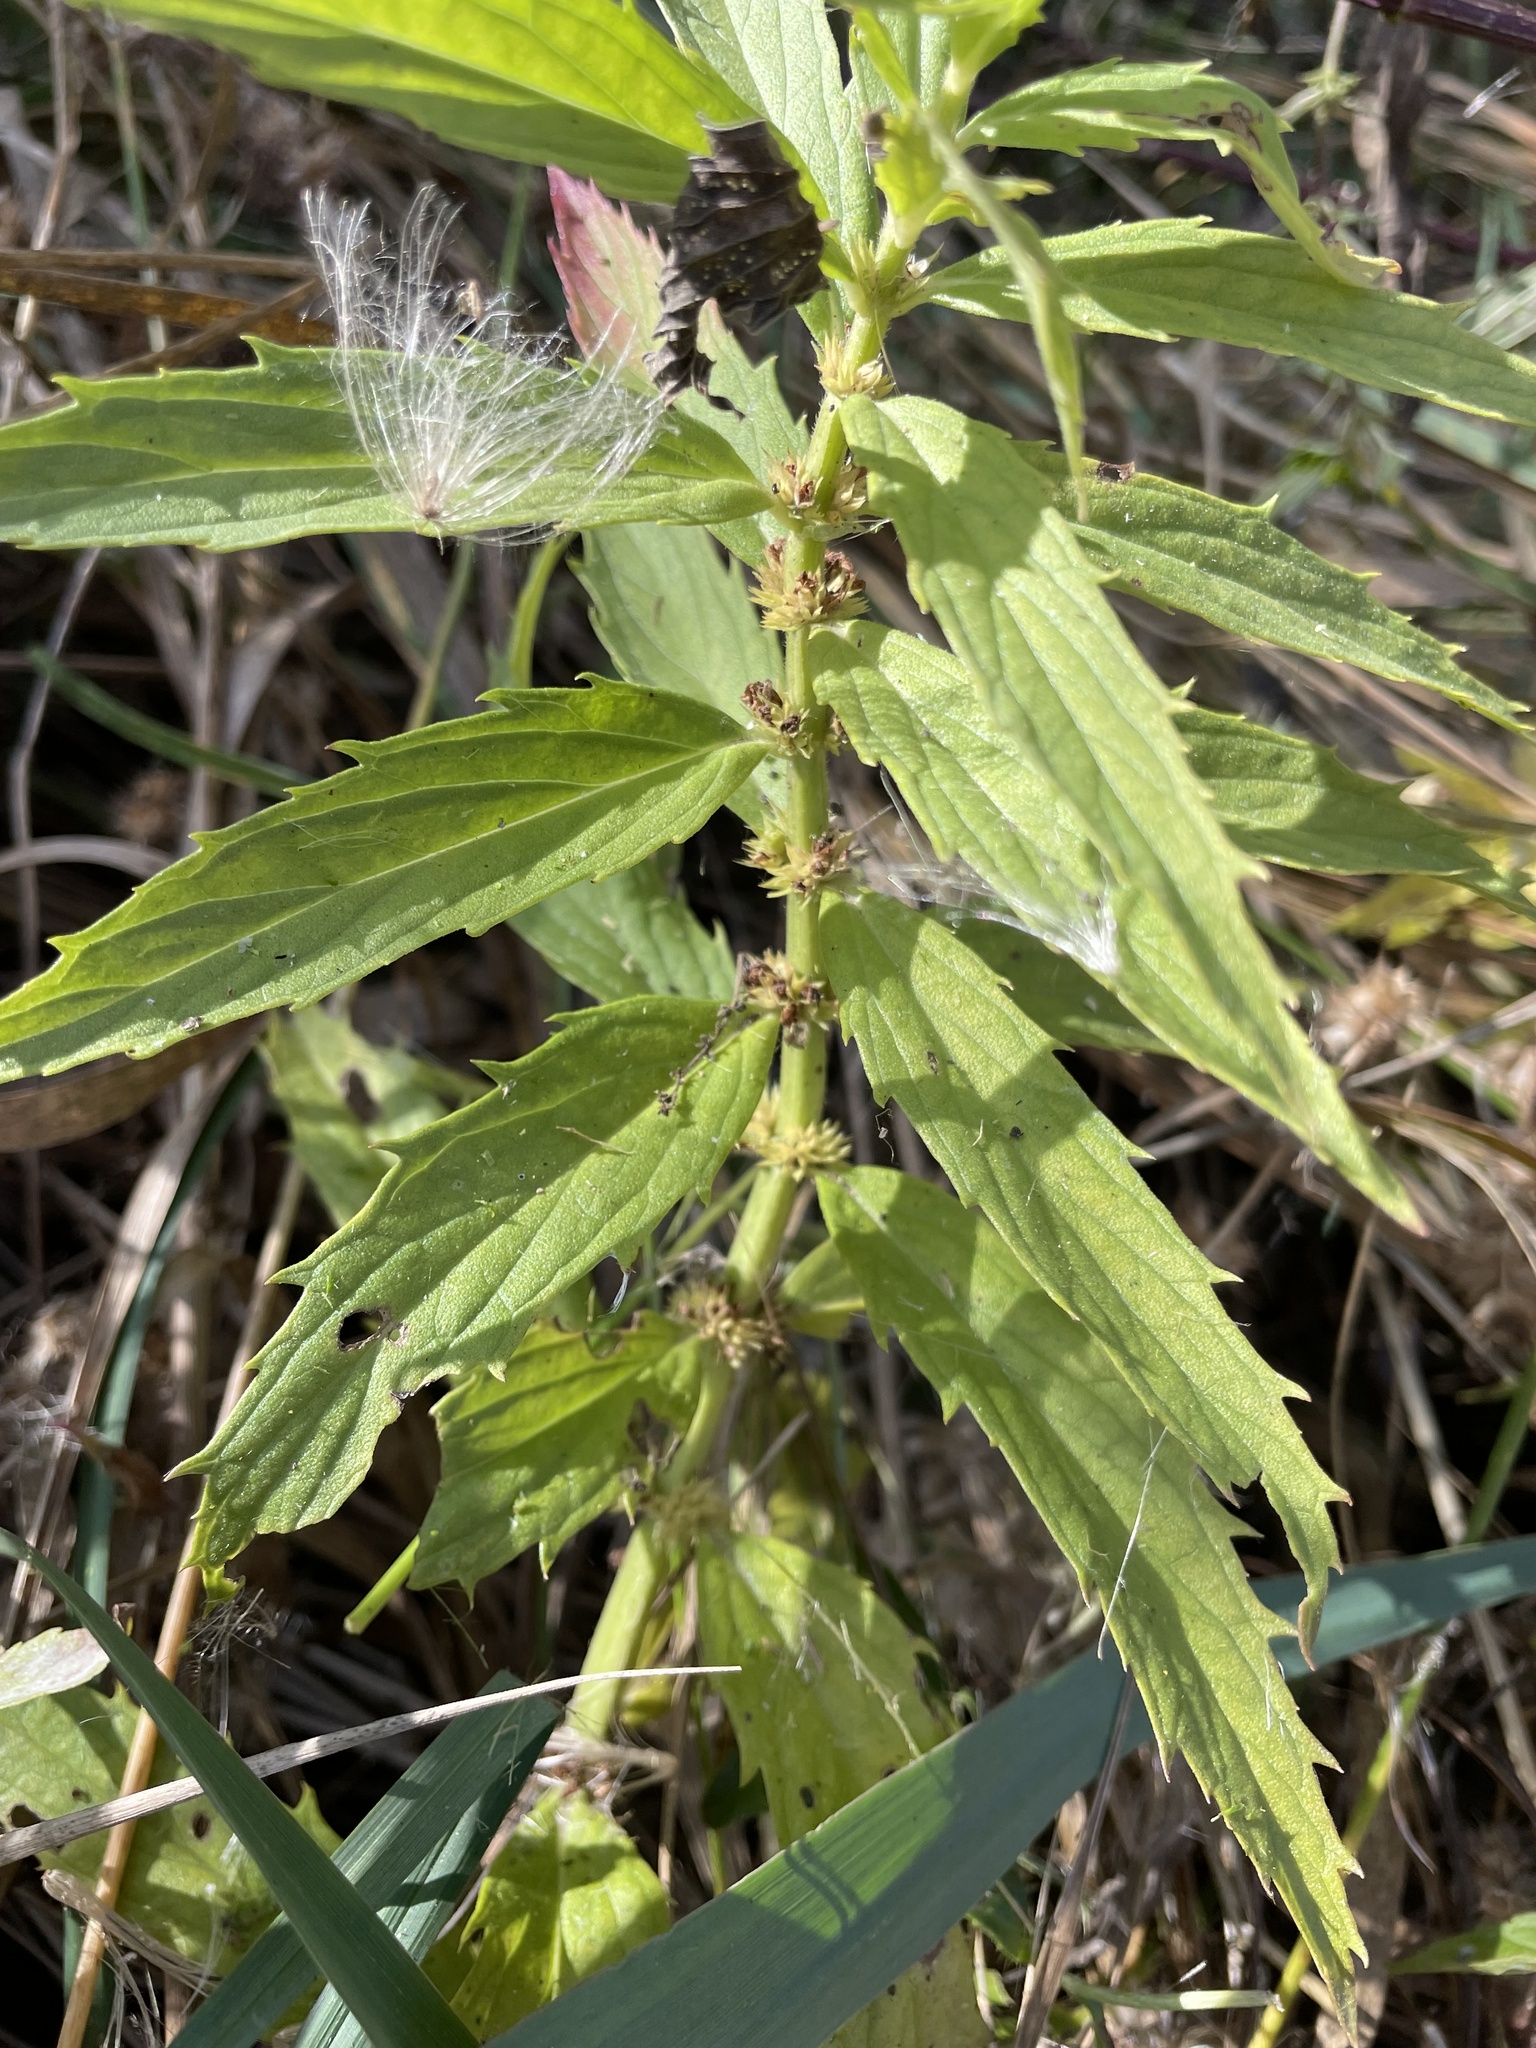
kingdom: Plantae
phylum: Tracheophyta
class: Magnoliopsida
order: Lamiales
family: Lamiaceae
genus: Lycopus
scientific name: Lycopus asper
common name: Rough water-horehound
